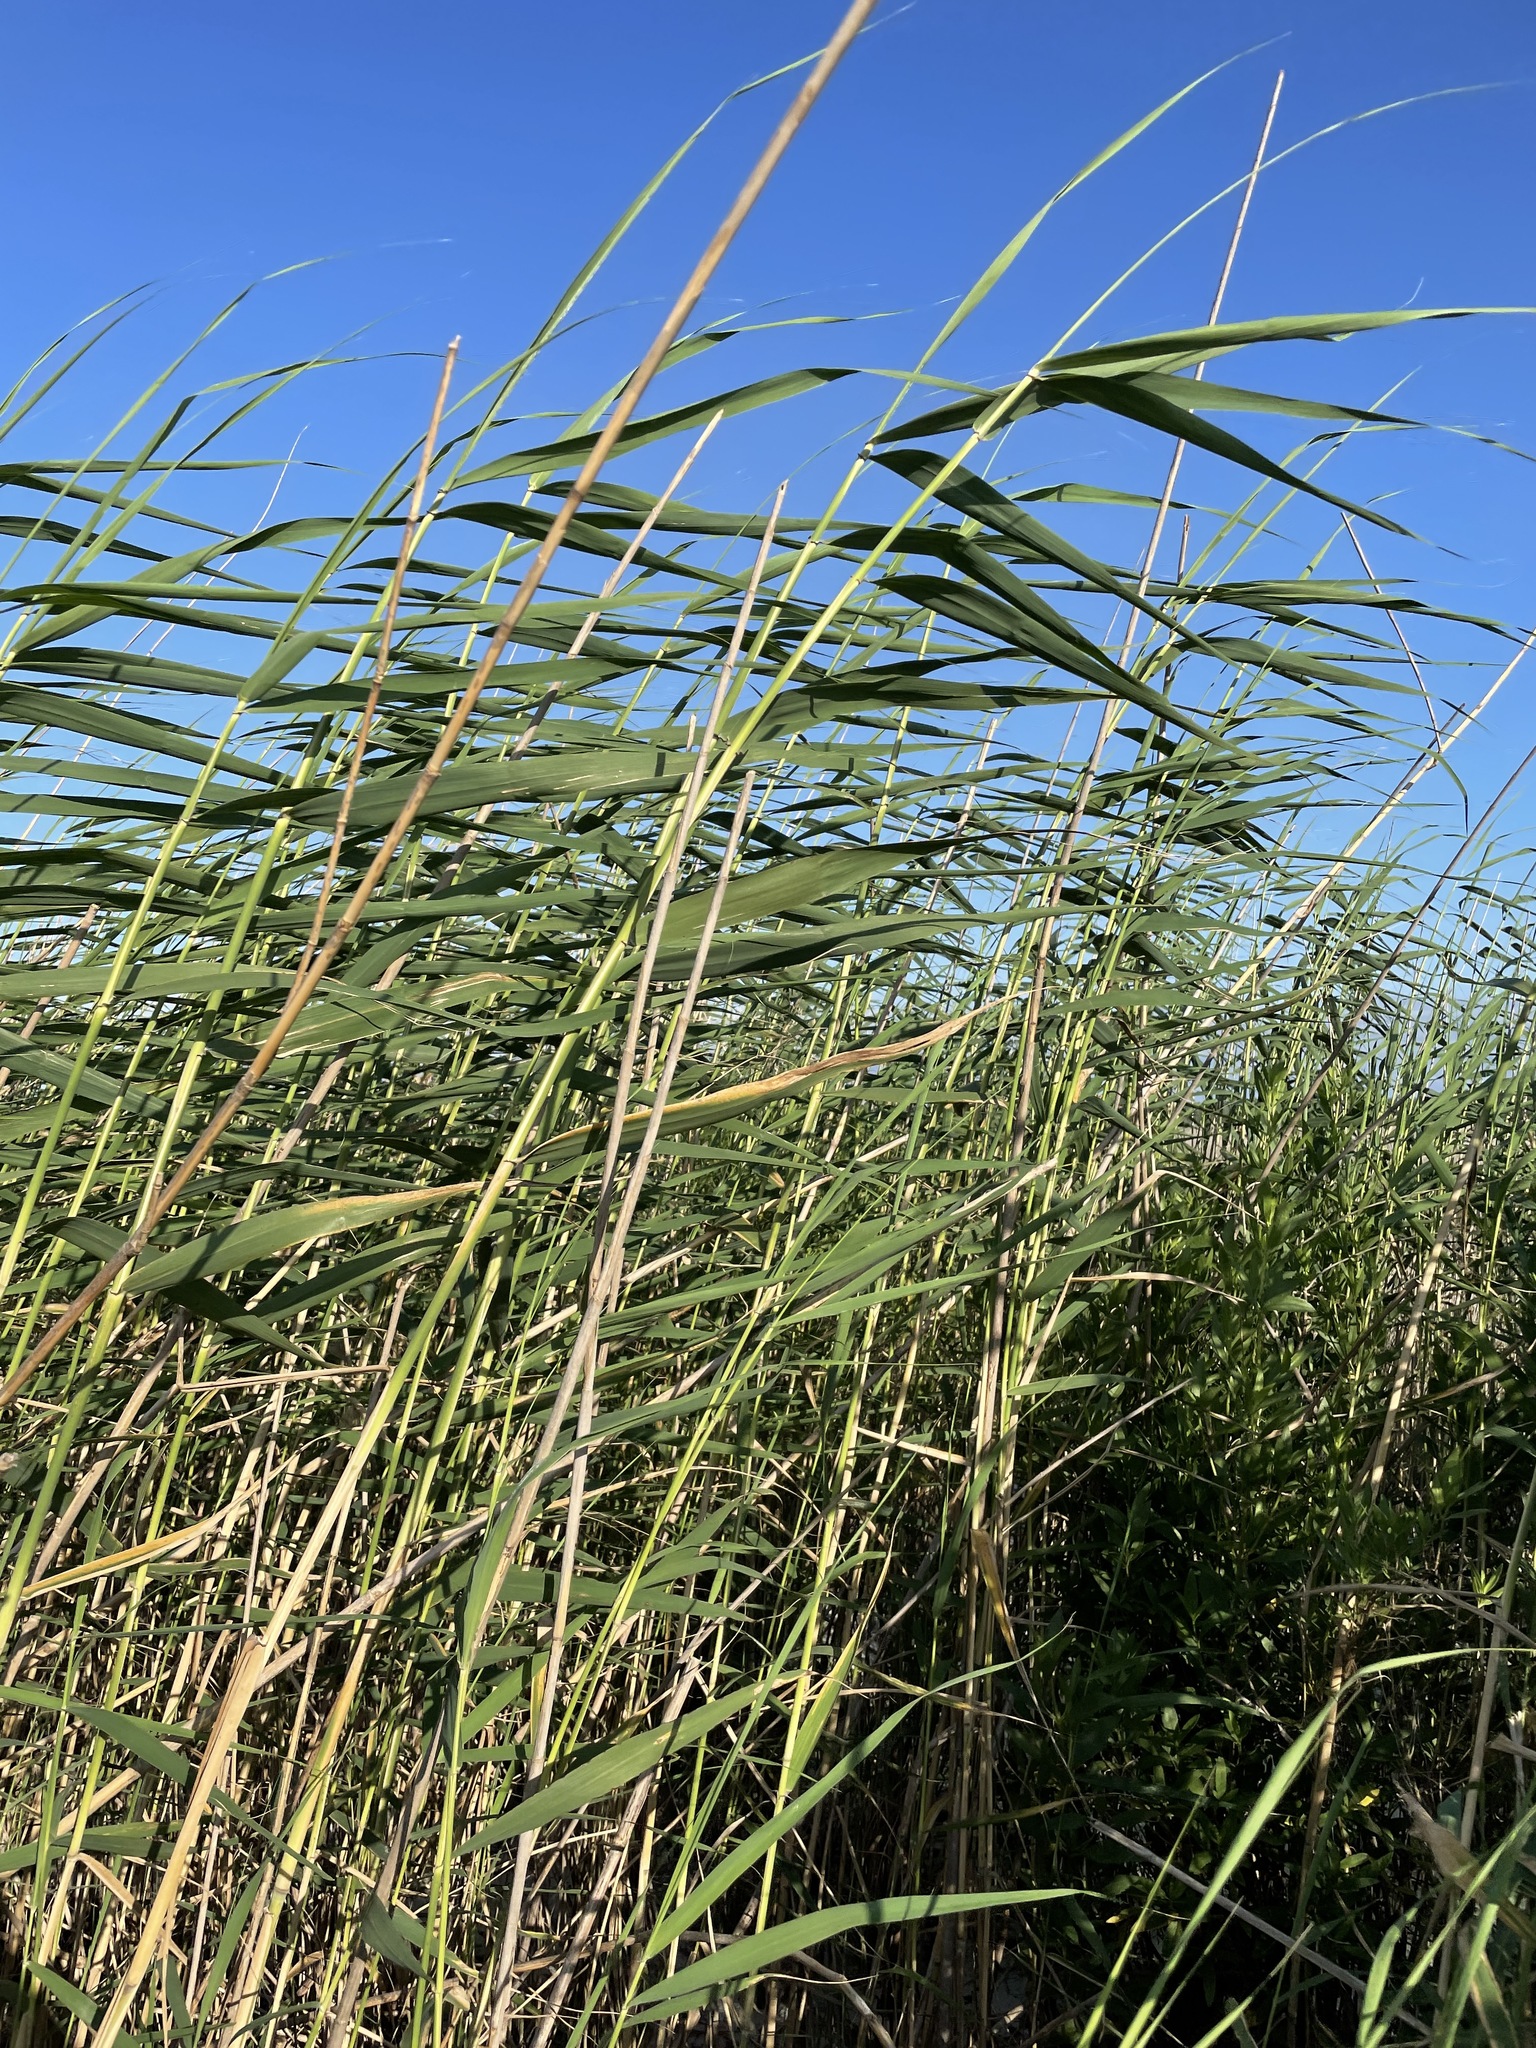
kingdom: Plantae
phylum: Tracheophyta
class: Liliopsida
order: Poales
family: Poaceae
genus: Phragmites
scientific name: Phragmites australis
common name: Common reed
